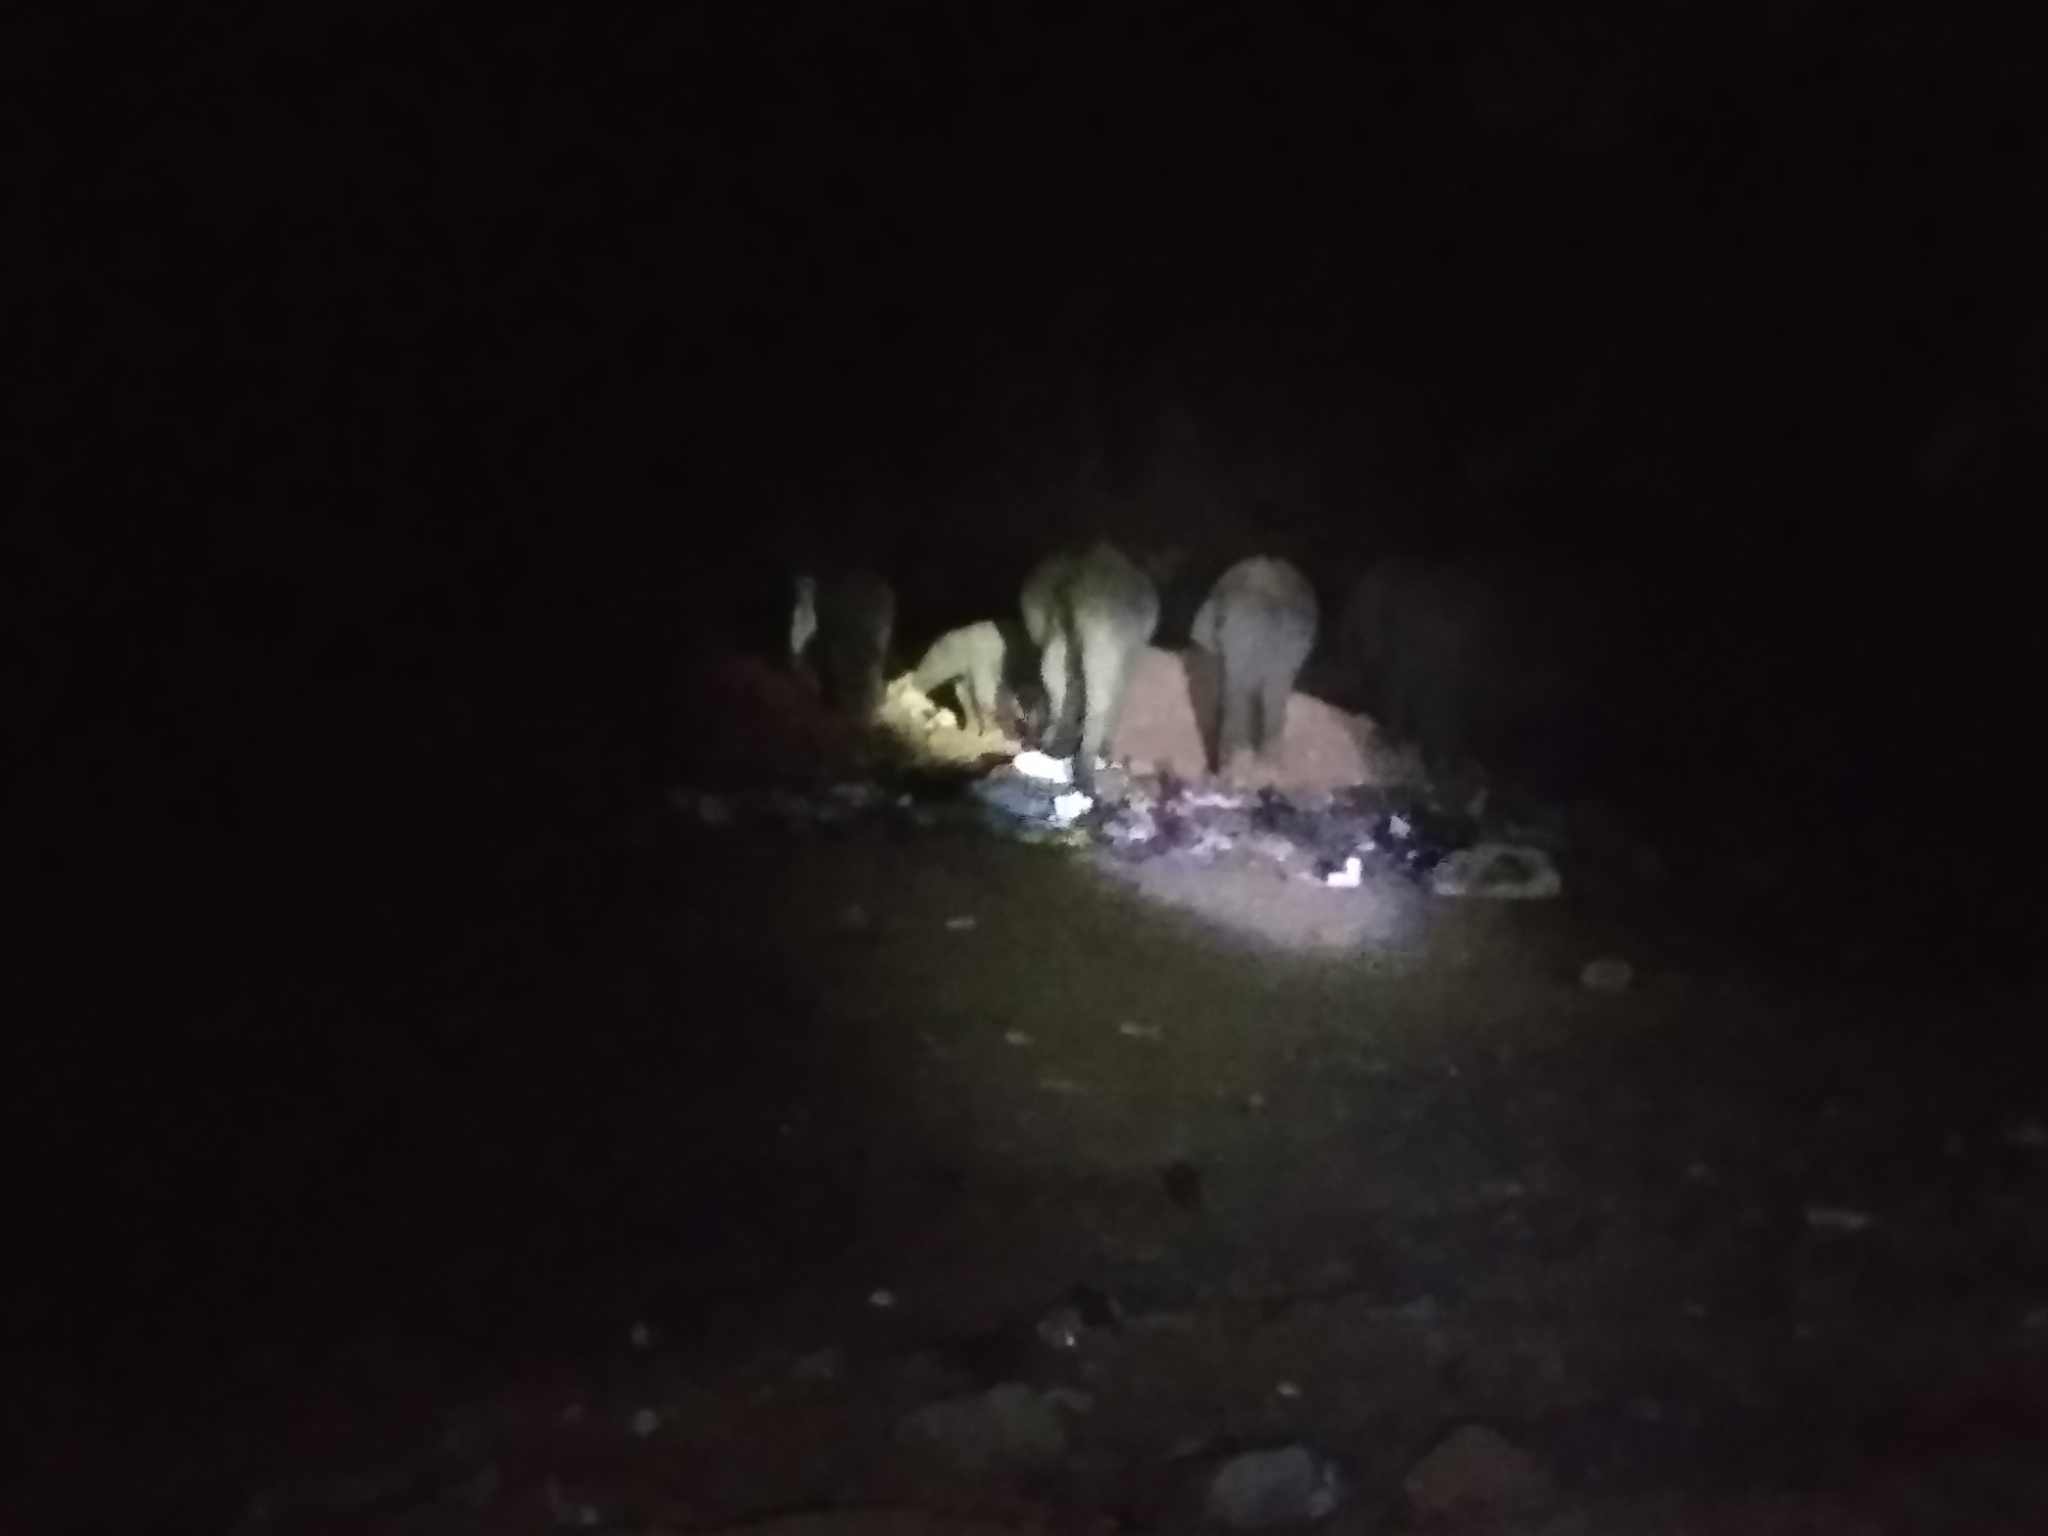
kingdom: Animalia
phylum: Chordata
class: Mammalia
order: Proboscidea
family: Elephantidae
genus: Elephas
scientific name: Elephas maximus
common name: Asian elephant
